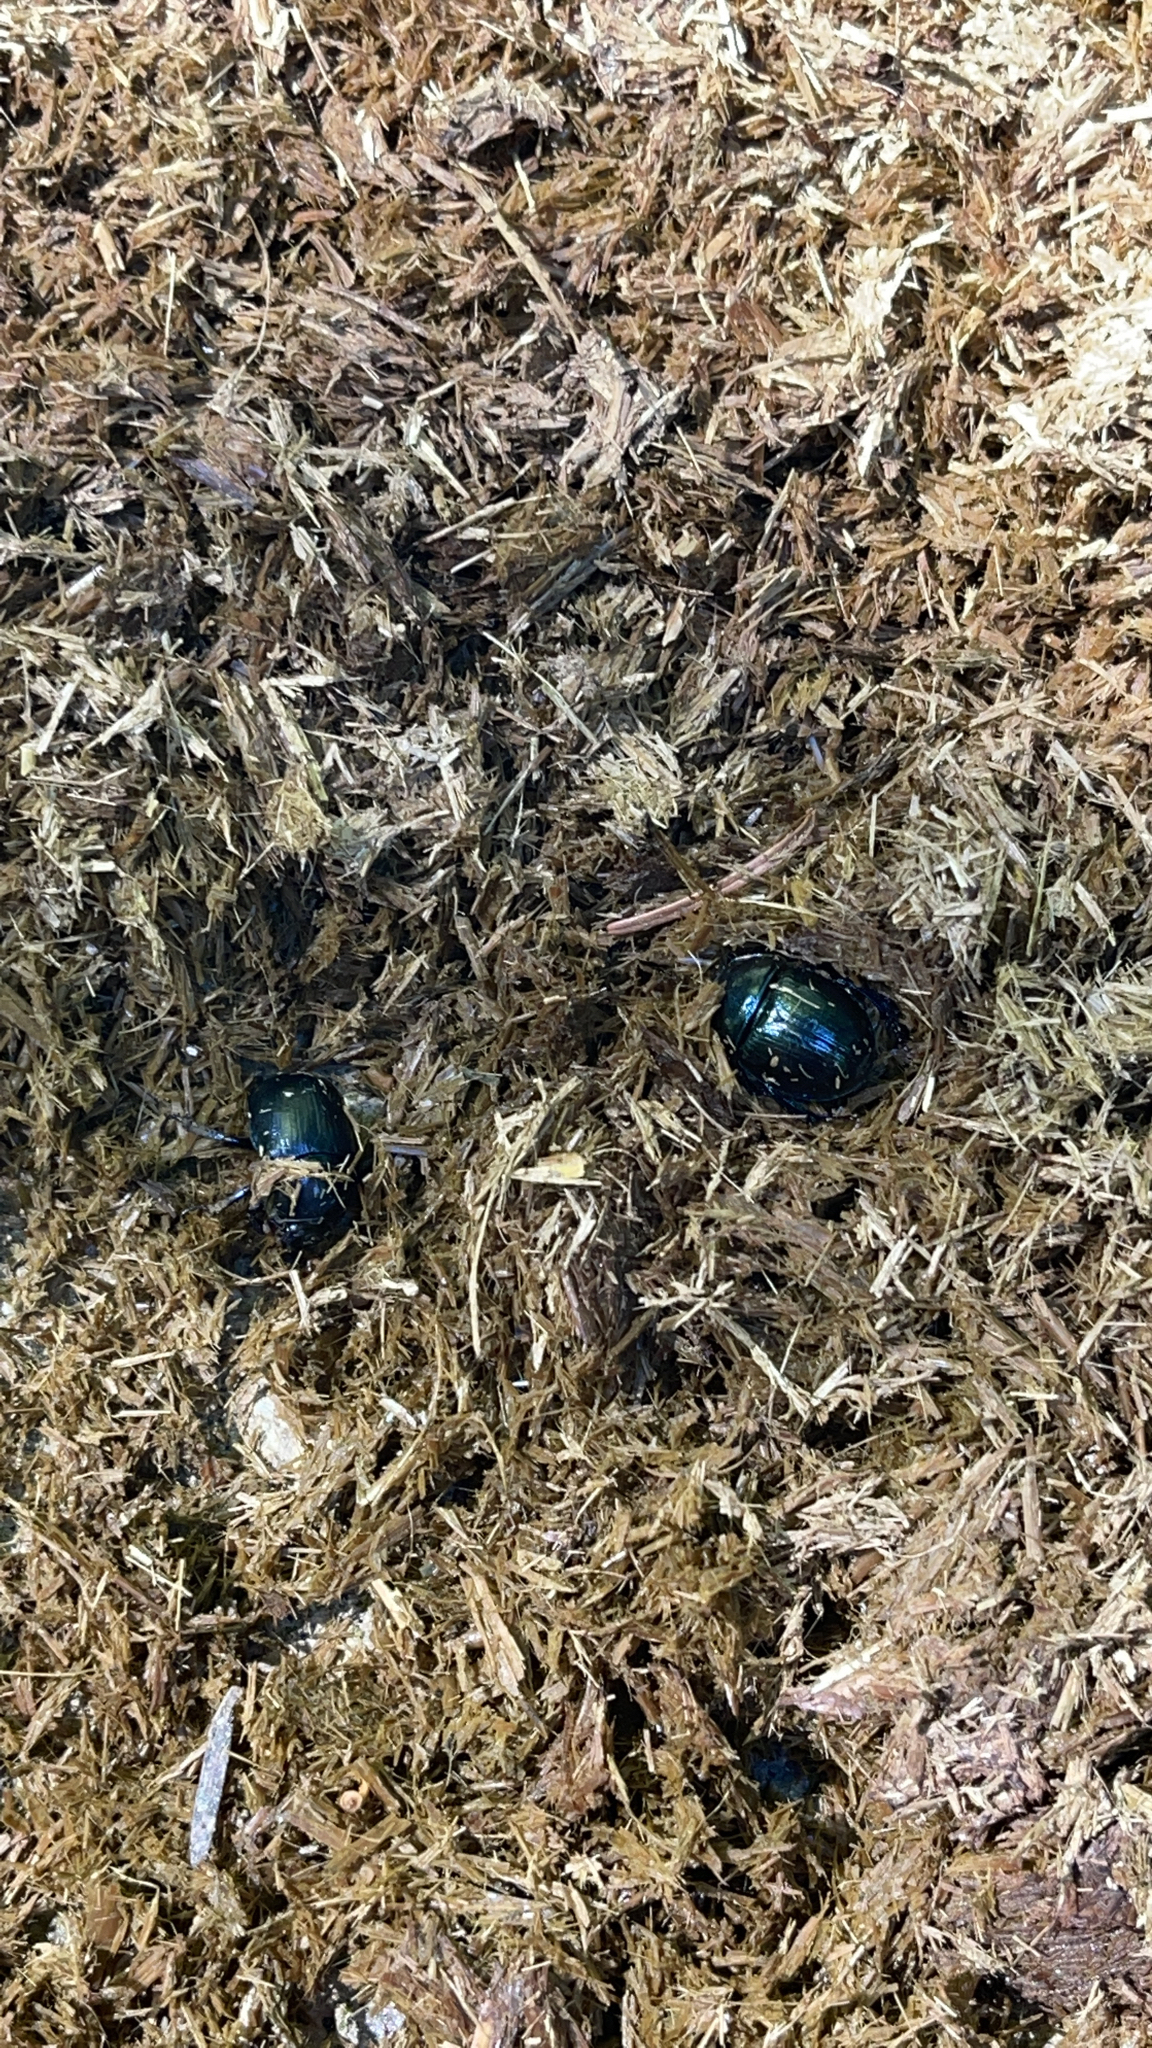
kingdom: Animalia
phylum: Arthropoda
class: Insecta
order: Coleoptera
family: Geotrupidae
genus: Anoplotrupes
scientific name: Anoplotrupes stercorosus
